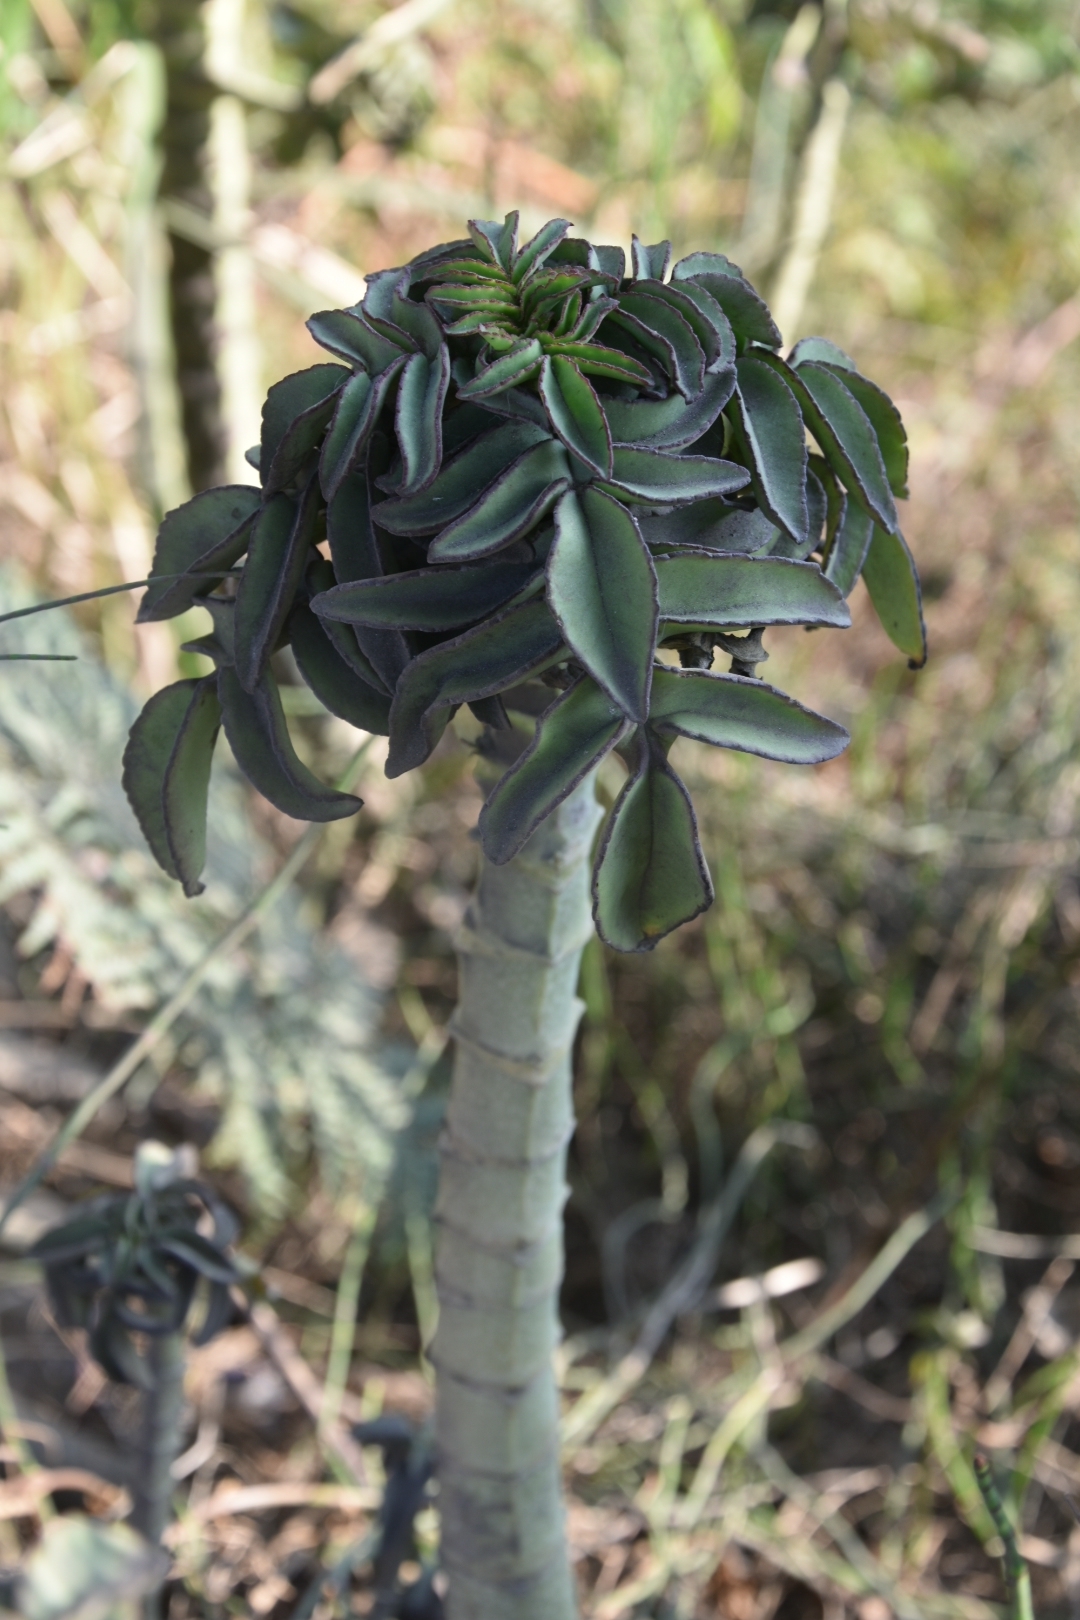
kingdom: Plantae
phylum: Tracheophyta
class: Magnoliopsida
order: Saxifragales
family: Crassulaceae
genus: Kalanchoe
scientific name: Kalanchoe prolifera
